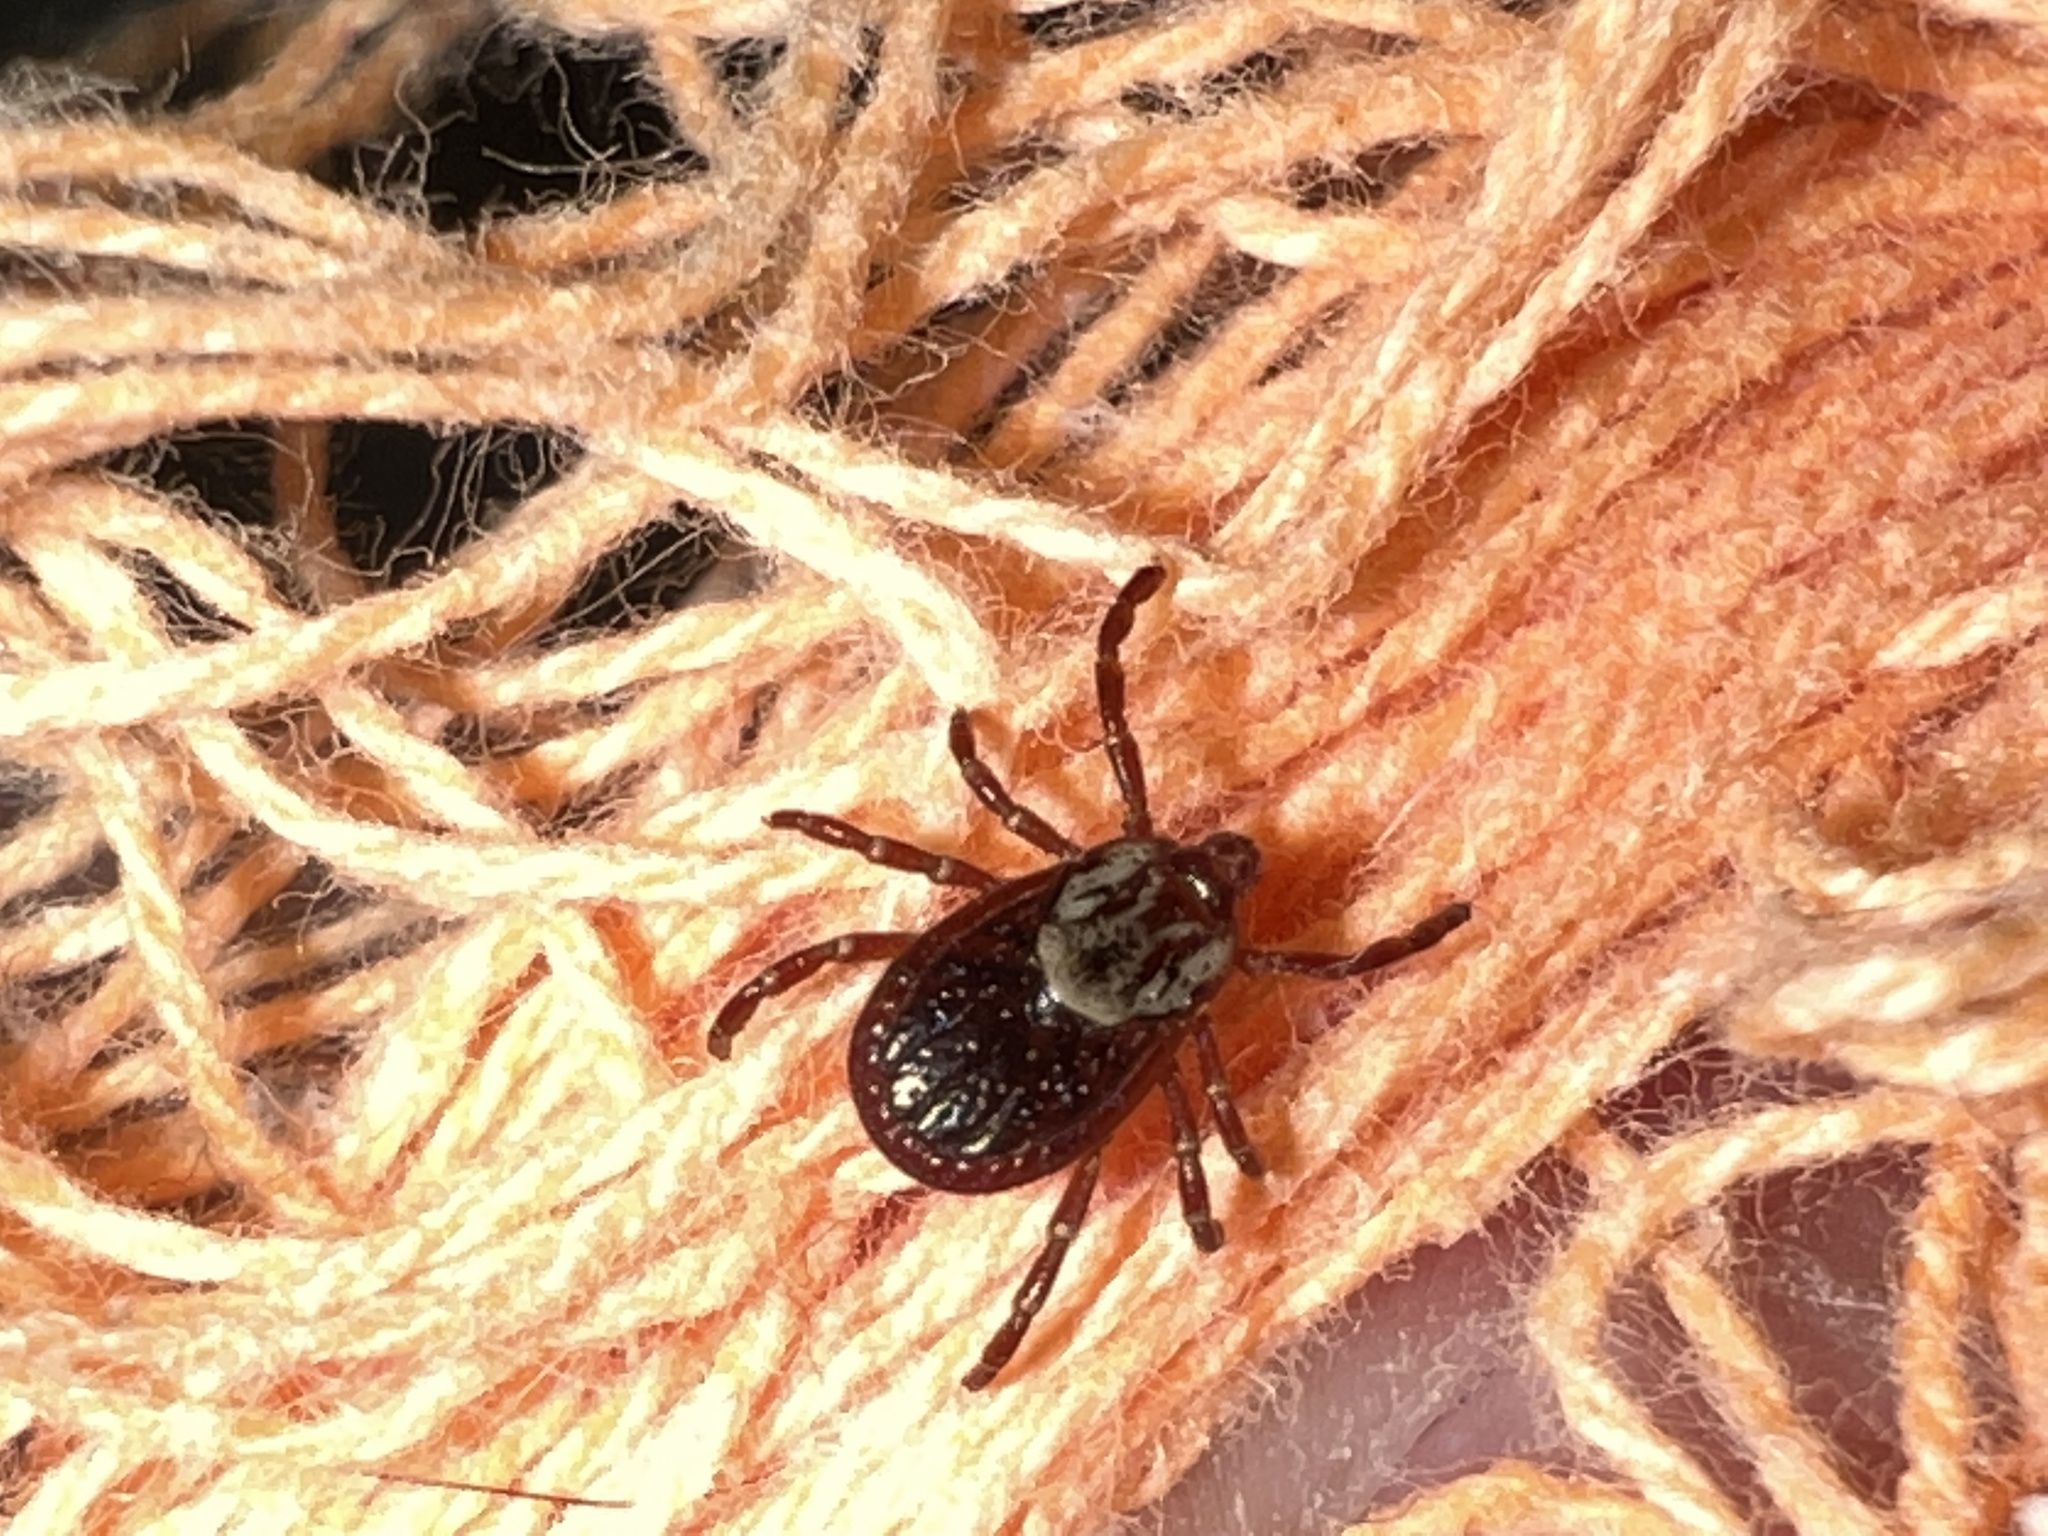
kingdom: Animalia
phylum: Arthropoda
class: Arachnida
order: Ixodida
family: Ixodidae
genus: Dermacentor
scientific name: Dermacentor variabilis
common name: American dog tick
